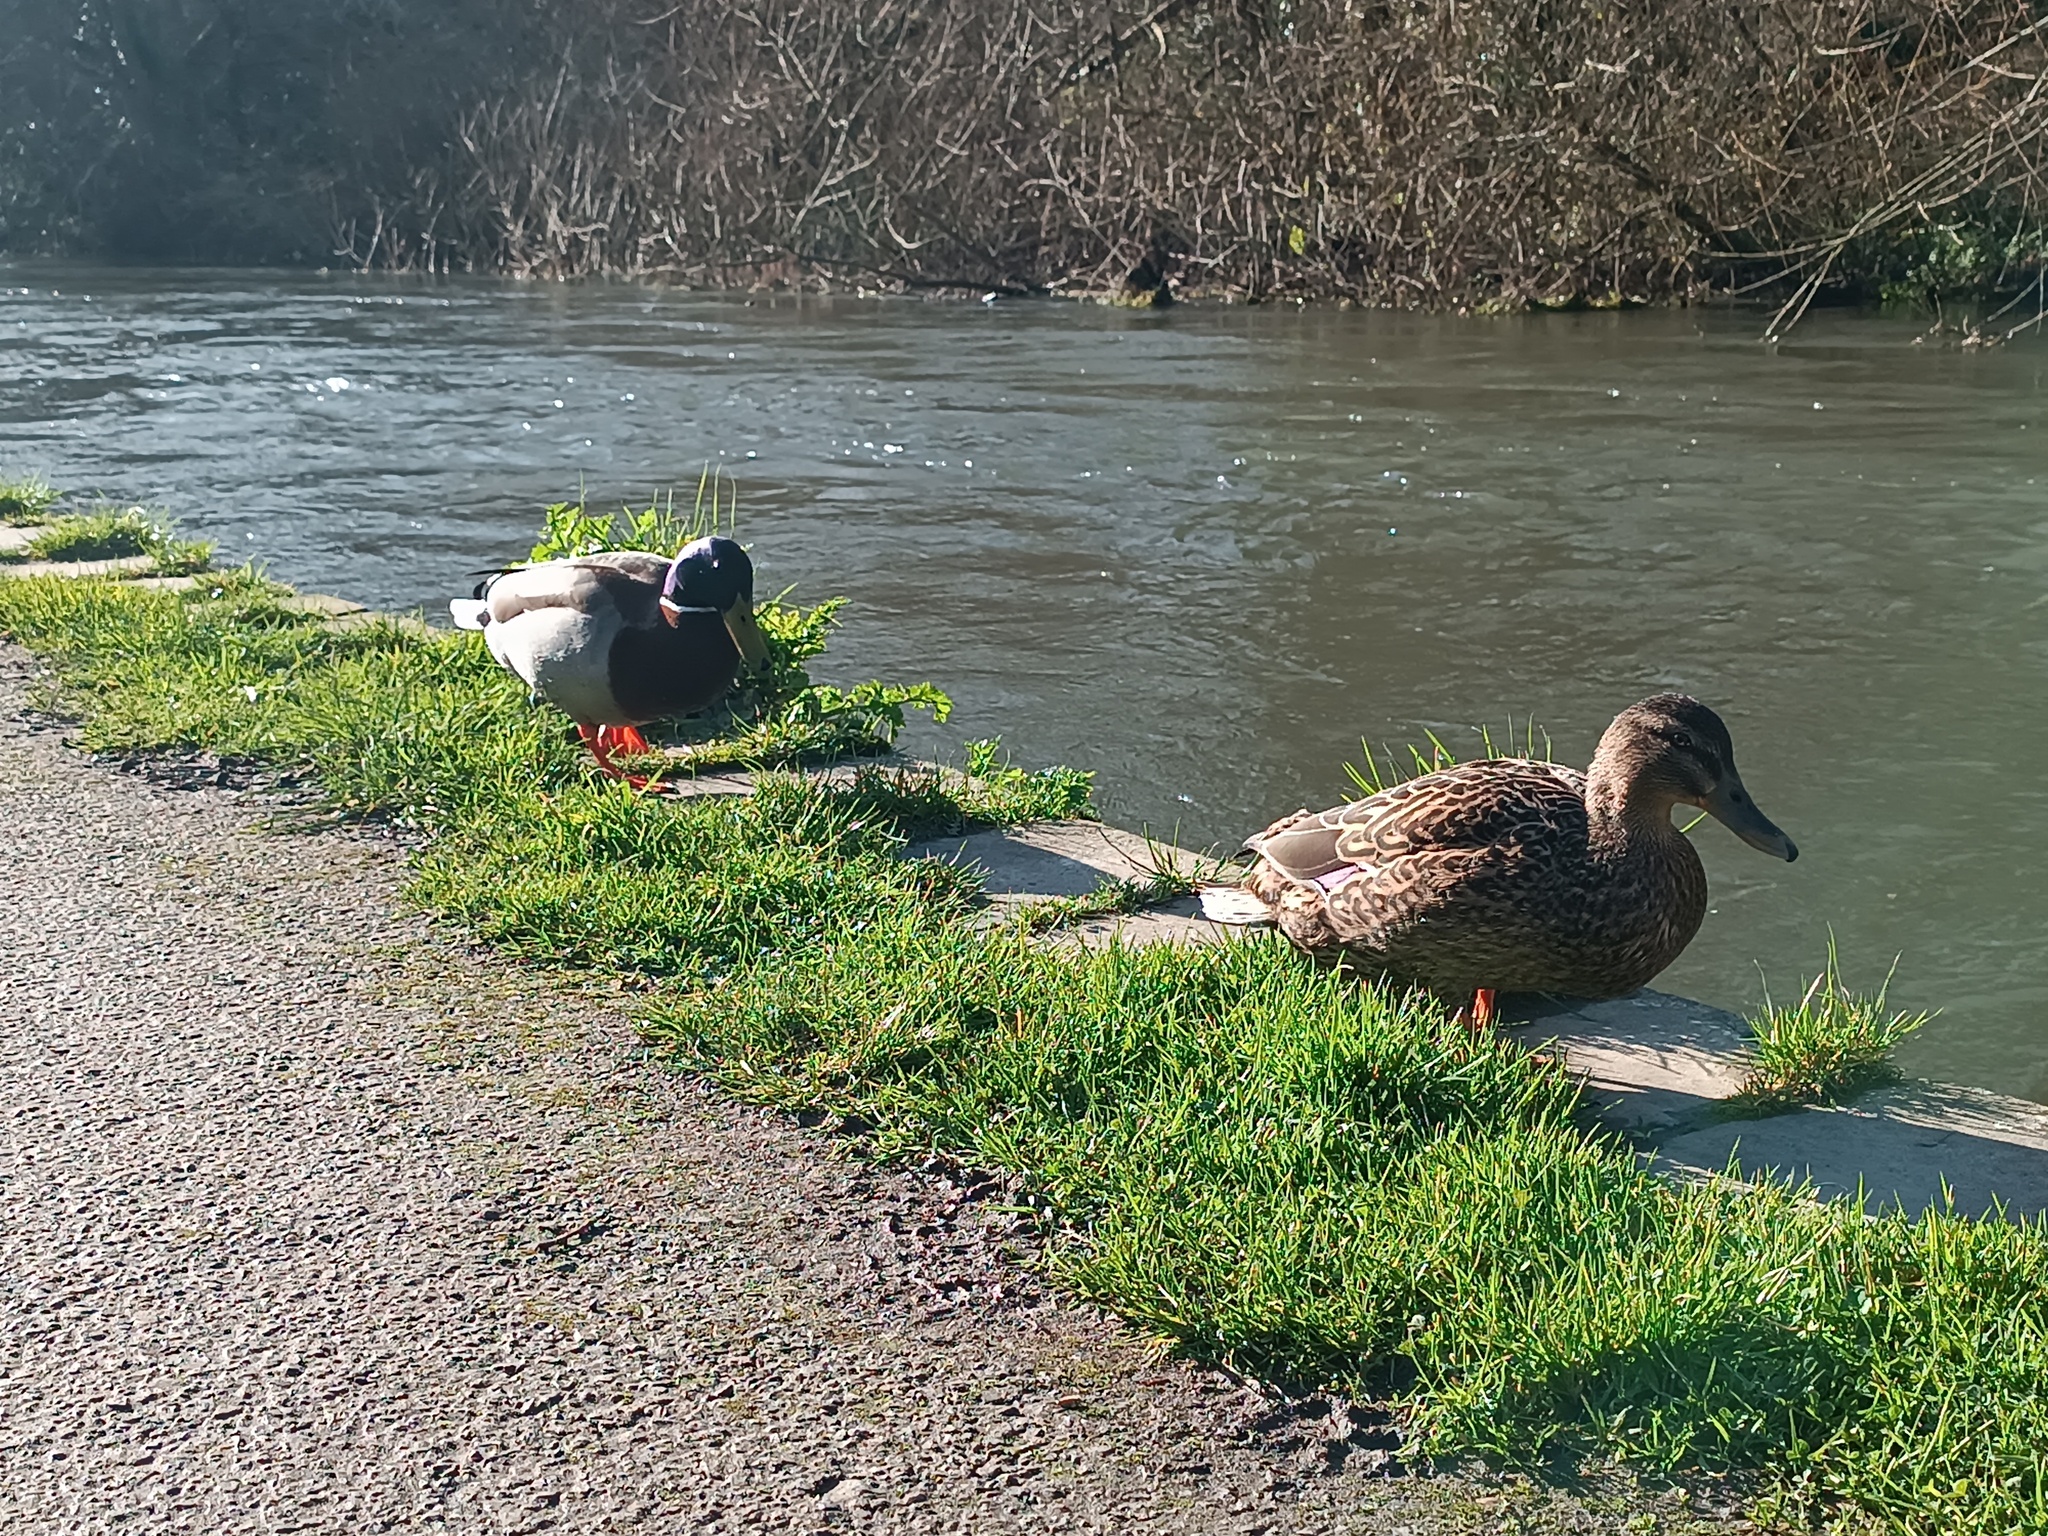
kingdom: Animalia
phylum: Chordata
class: Aves
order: Anseriformes
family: Anatidae
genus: Anas
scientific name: Anas platyrhynchos
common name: Mallard
